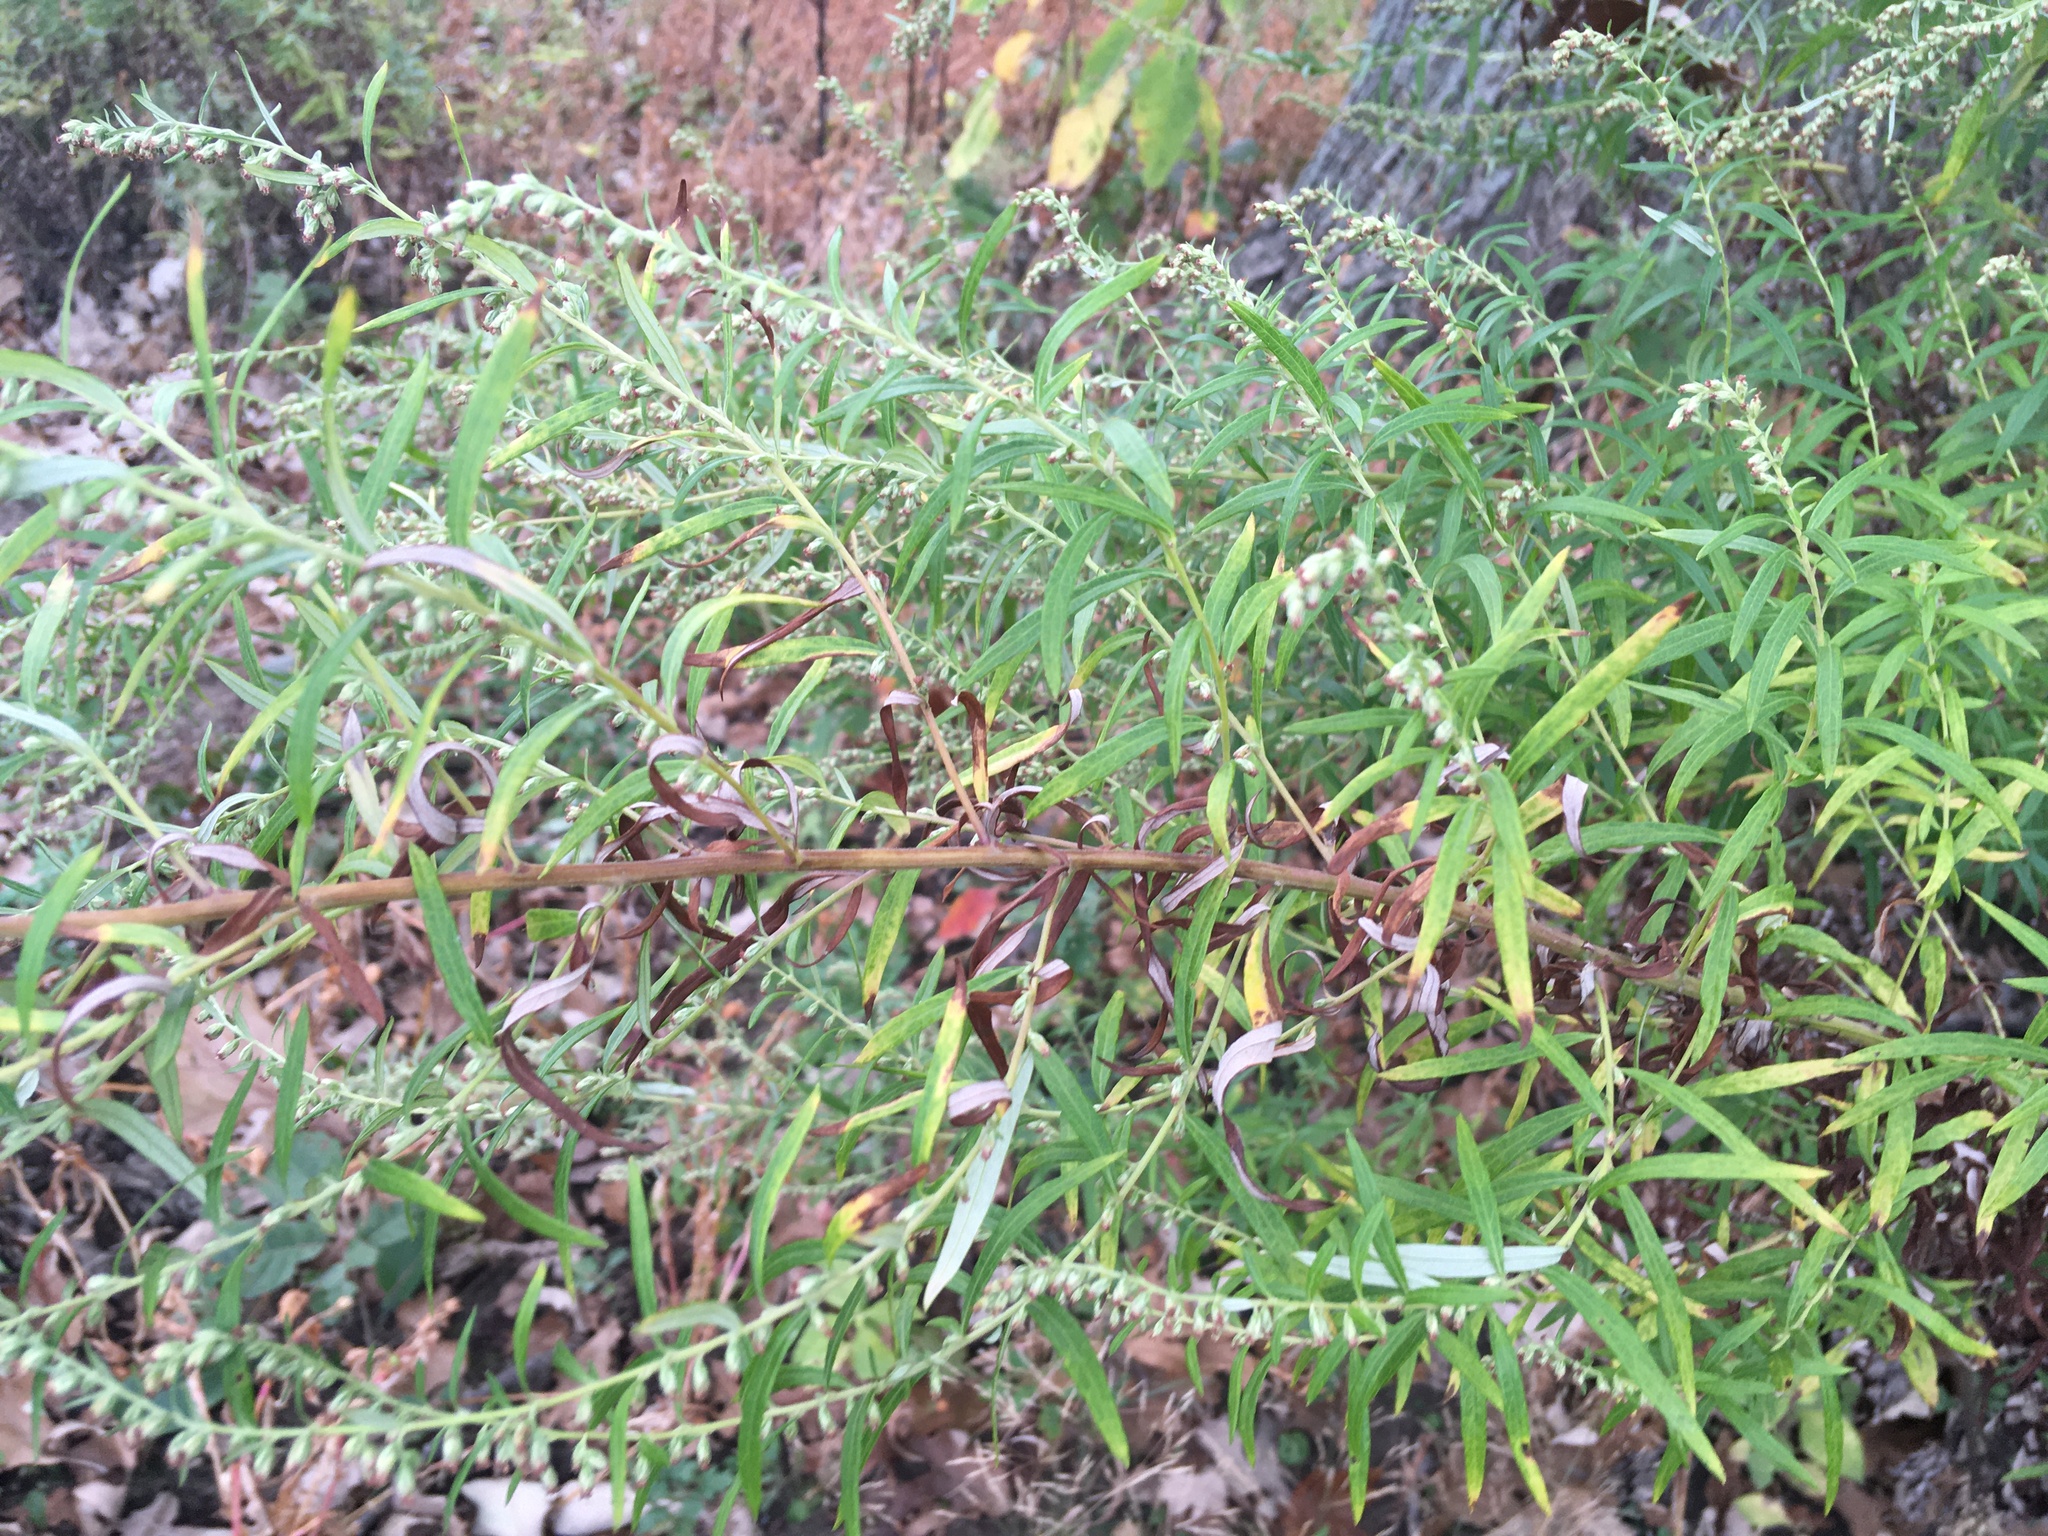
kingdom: Plantae
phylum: Tracheophyta
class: Magnoliopsida
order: Asterales
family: Asteraceae
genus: Artemisia
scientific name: Artemisia vulgaris
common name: Mugwort
